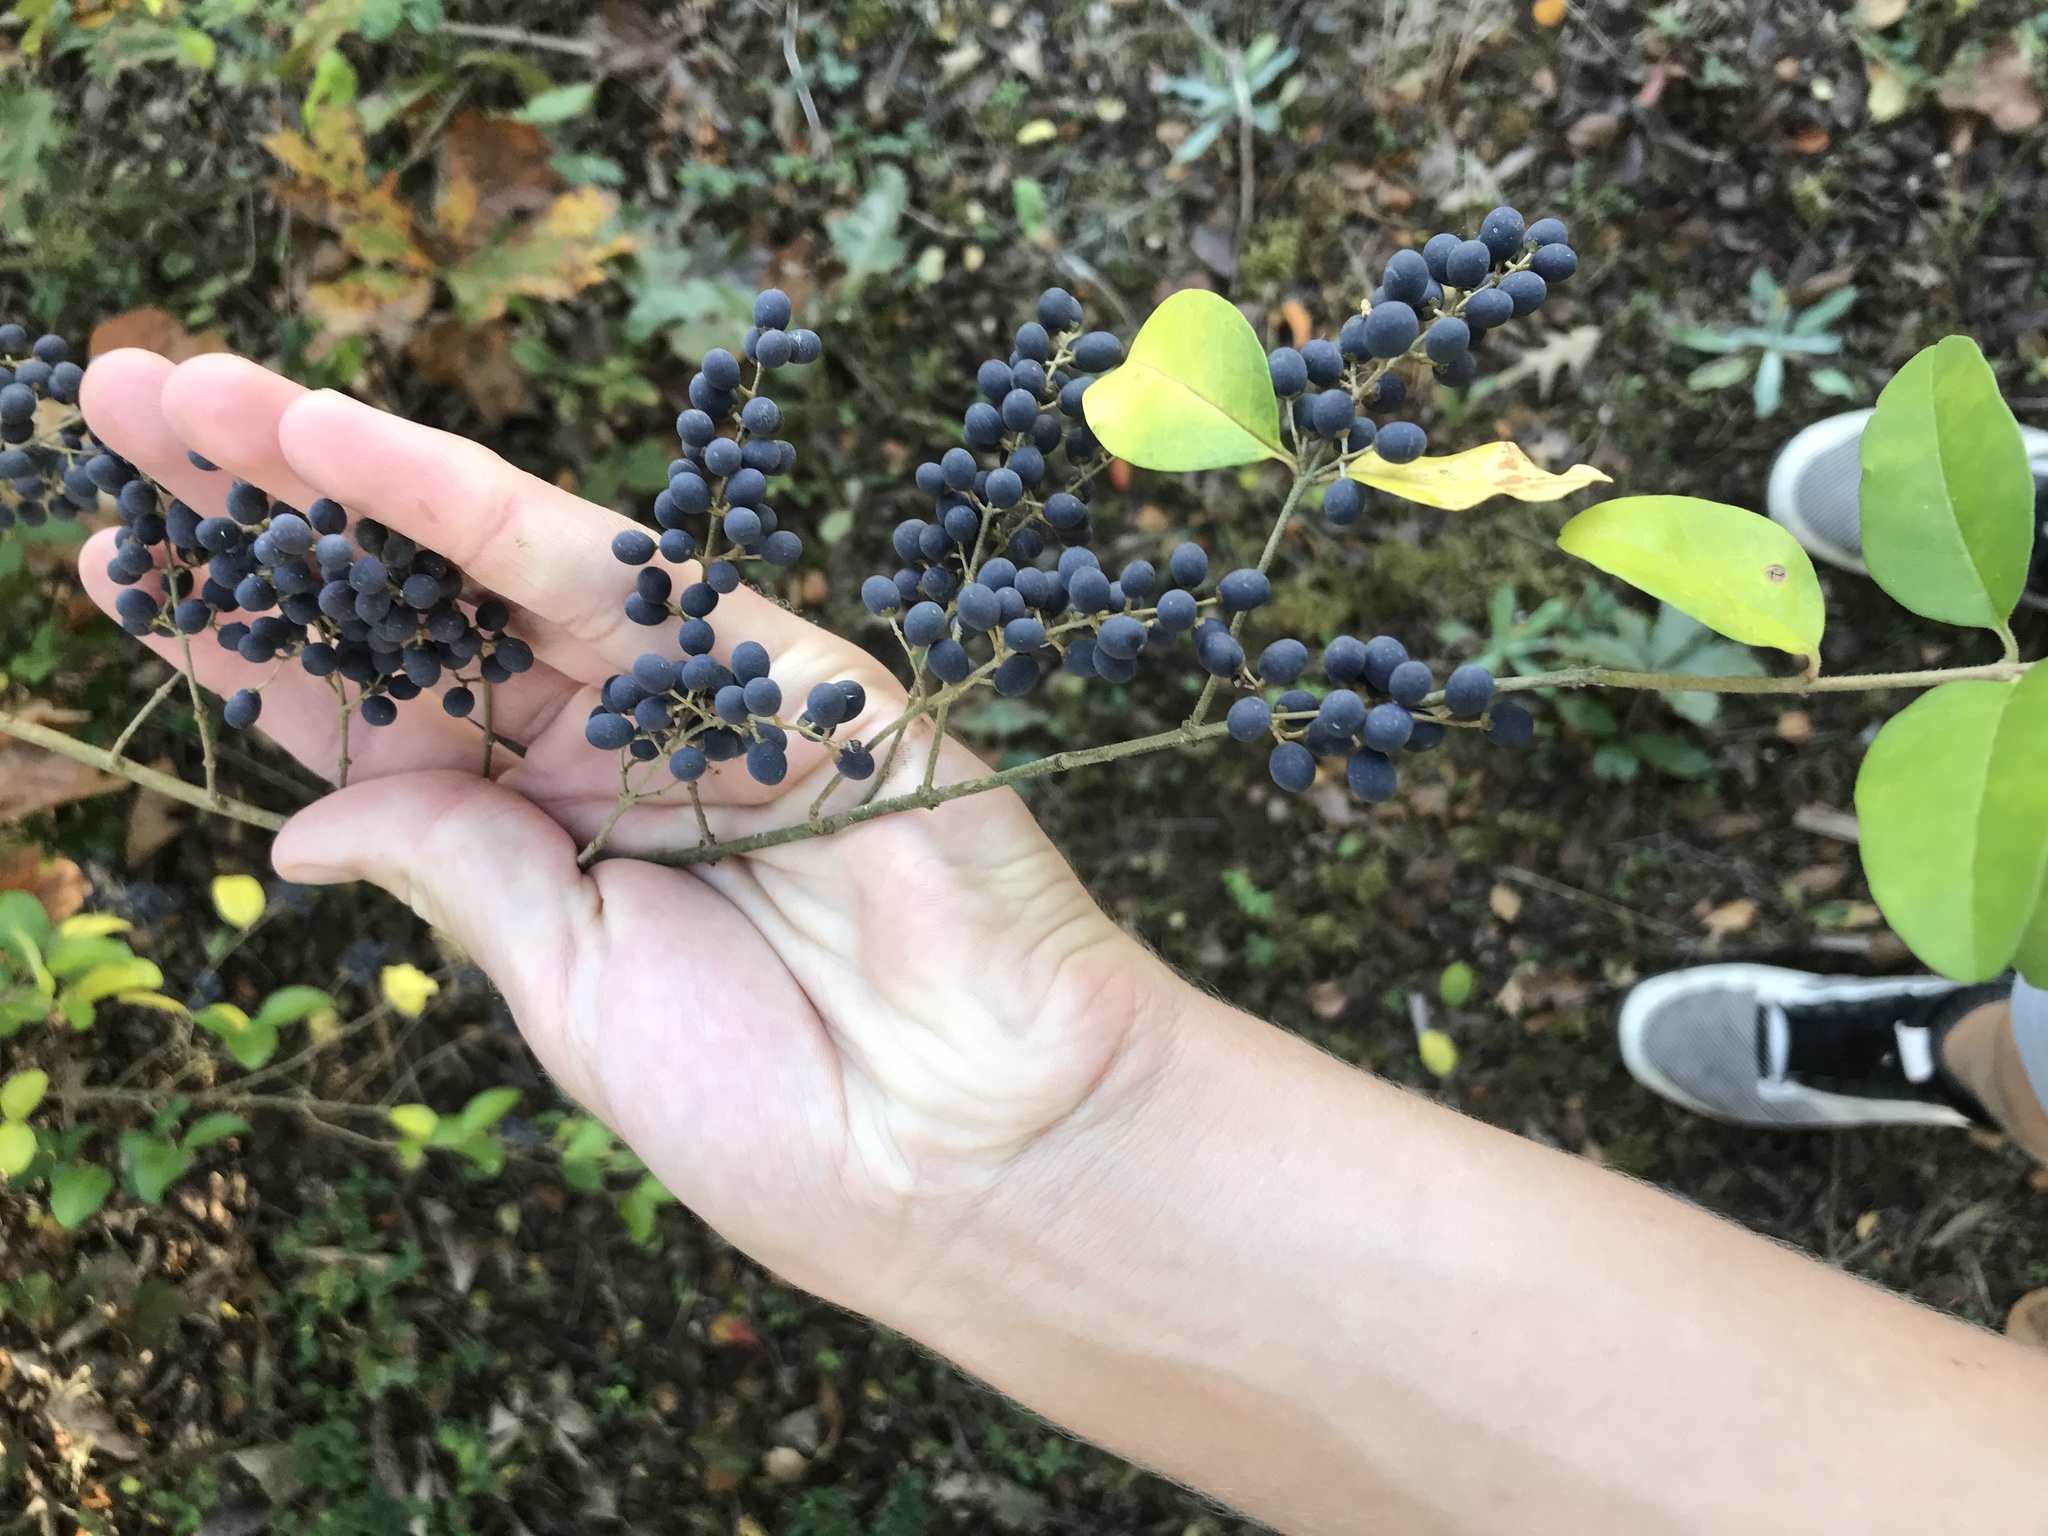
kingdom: Plantae
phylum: Tracheophyta
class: Magnoliopsida
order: Lamiales
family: Oleaceae
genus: Ligustrum
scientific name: Ligustrum sinense
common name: Chinese privet
